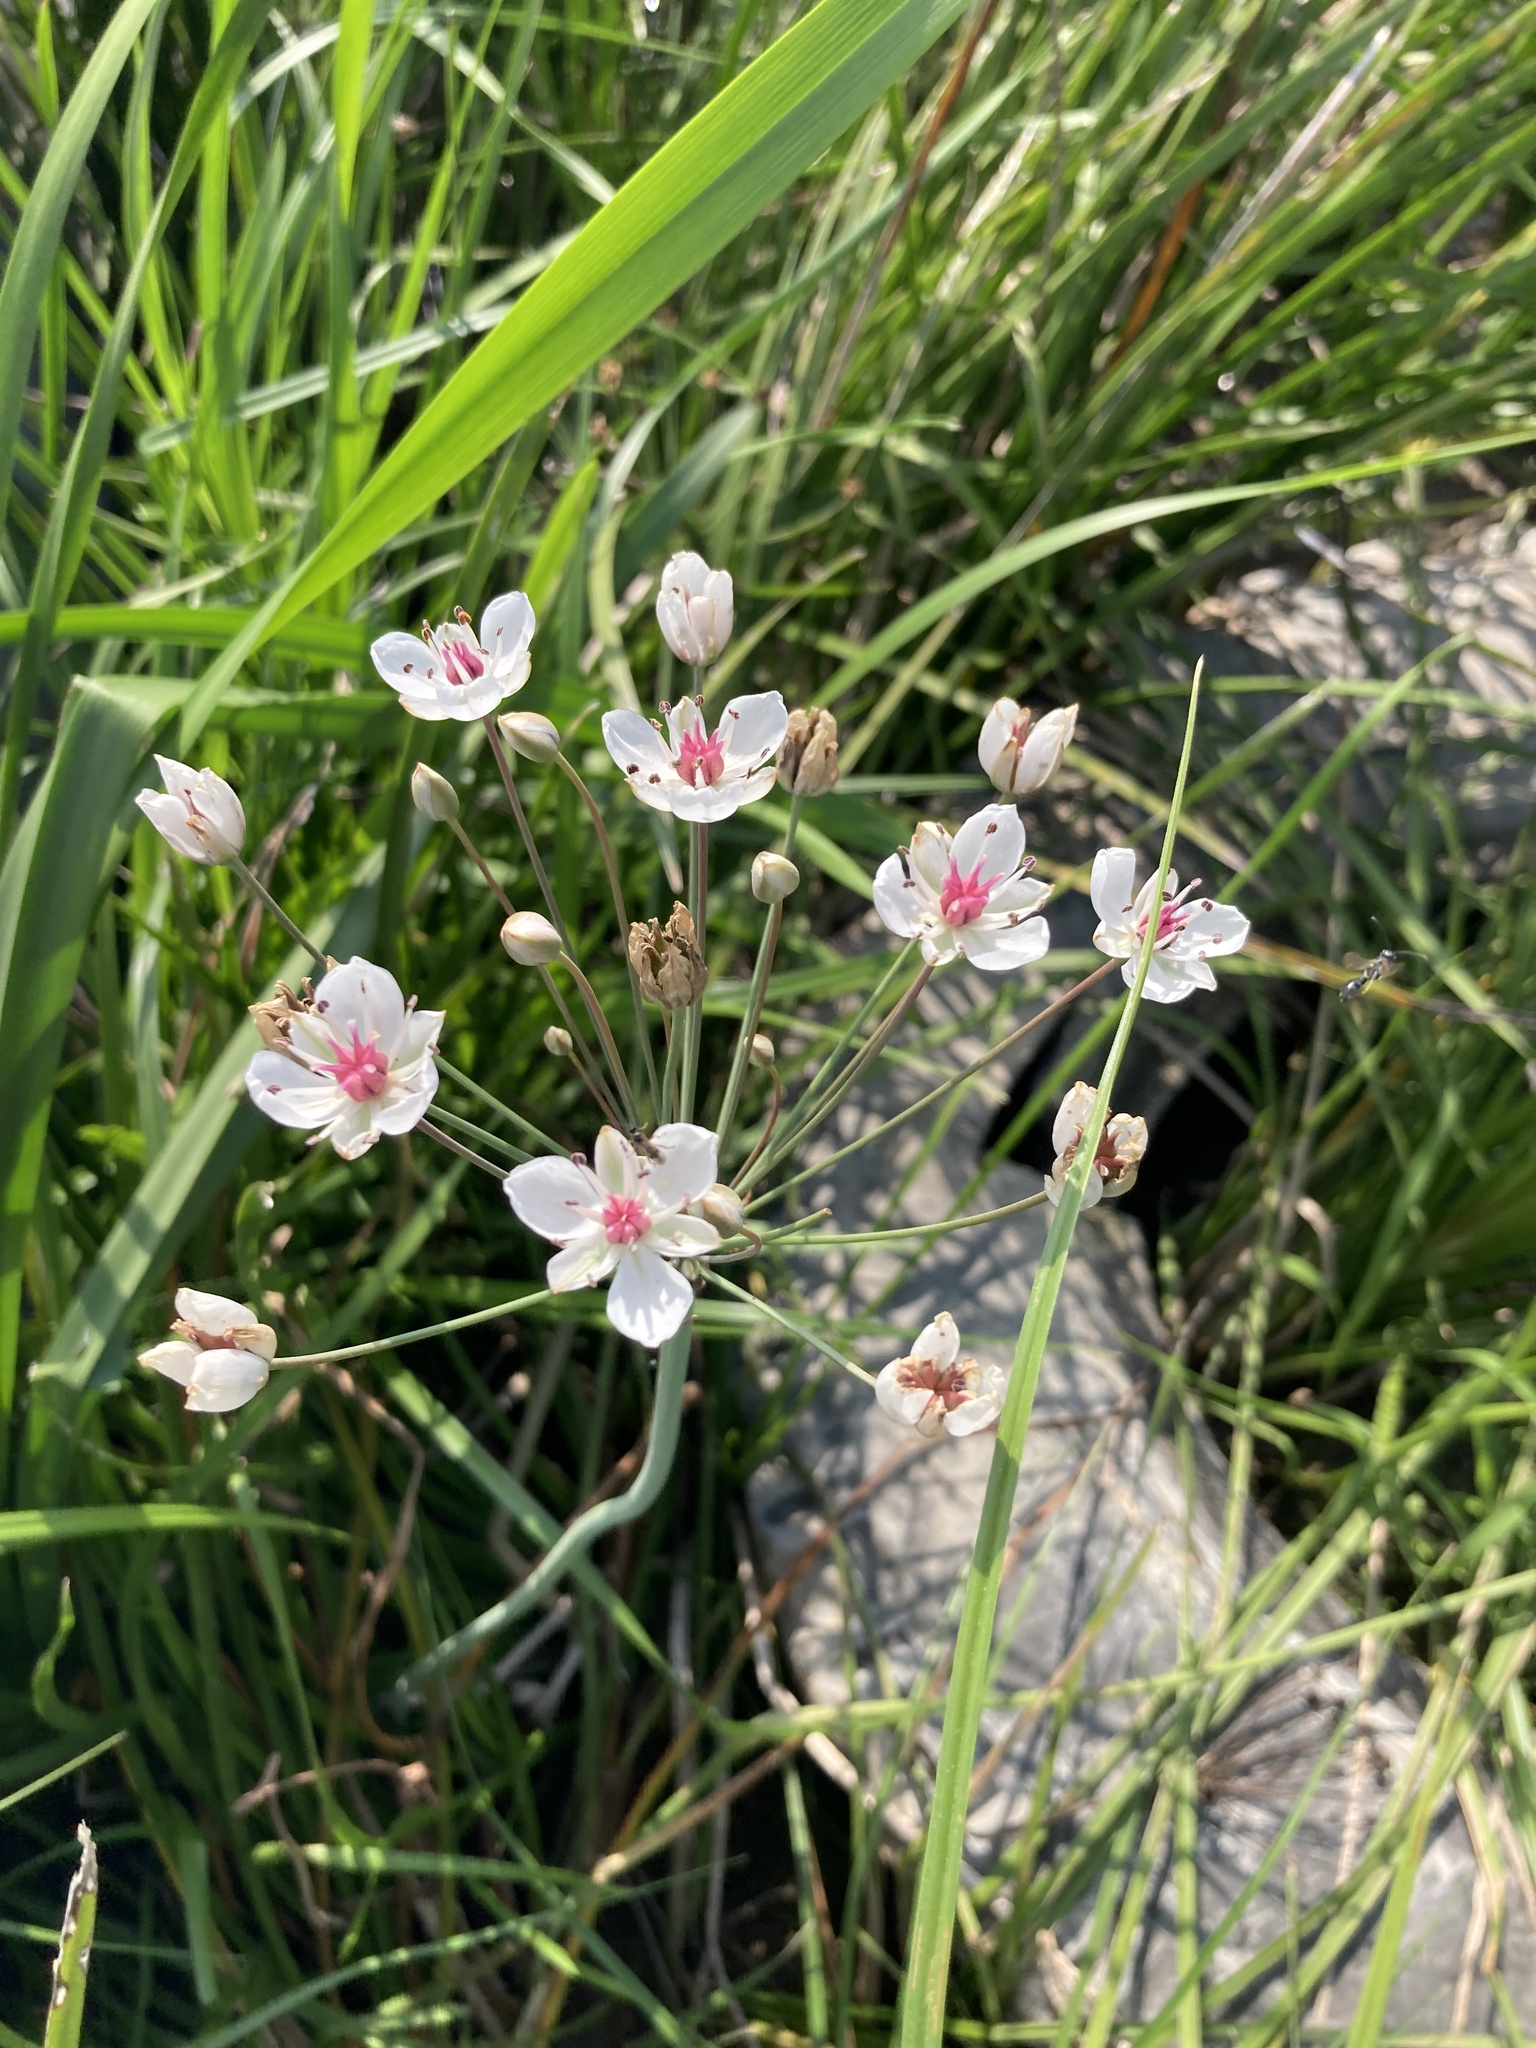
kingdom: Plantae
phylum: Tracheophyta
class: Liliopsida
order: Alismatales
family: Butomaceae
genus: Butomus
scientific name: Butomus umbellatus
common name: Flowering-rush
